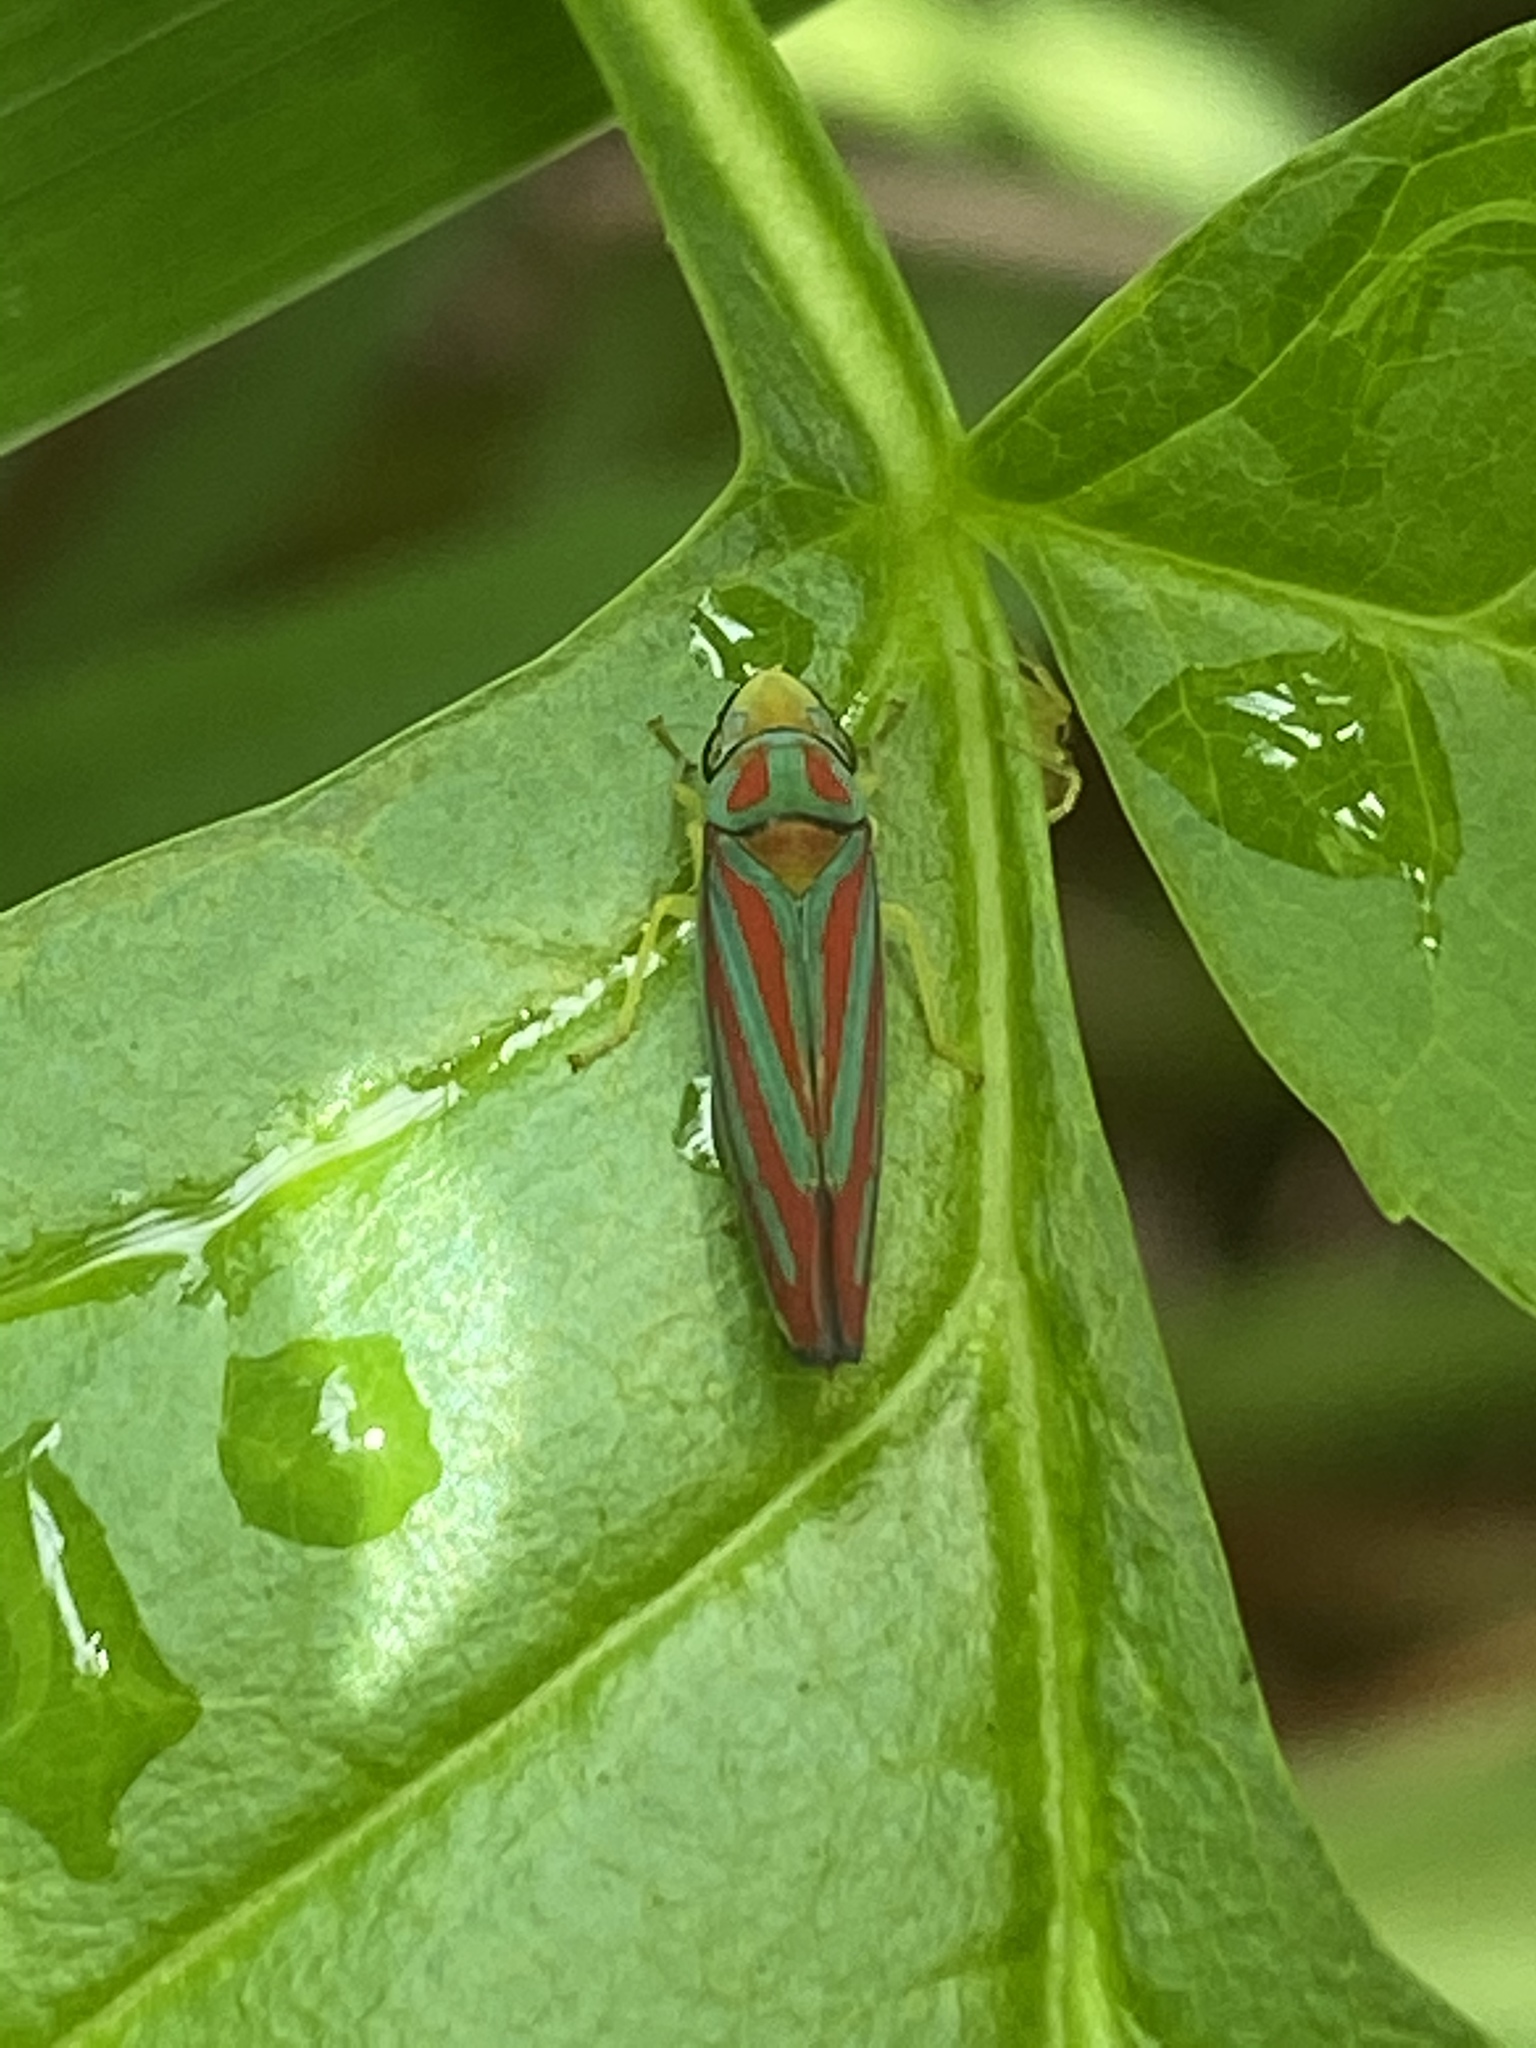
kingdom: Animalia
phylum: Arthropoda
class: Insecta
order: Hemiptera
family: Cicadellidae
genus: Graphocephala
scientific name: Graphocephala coccinea
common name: Candy-striped leafhopper
